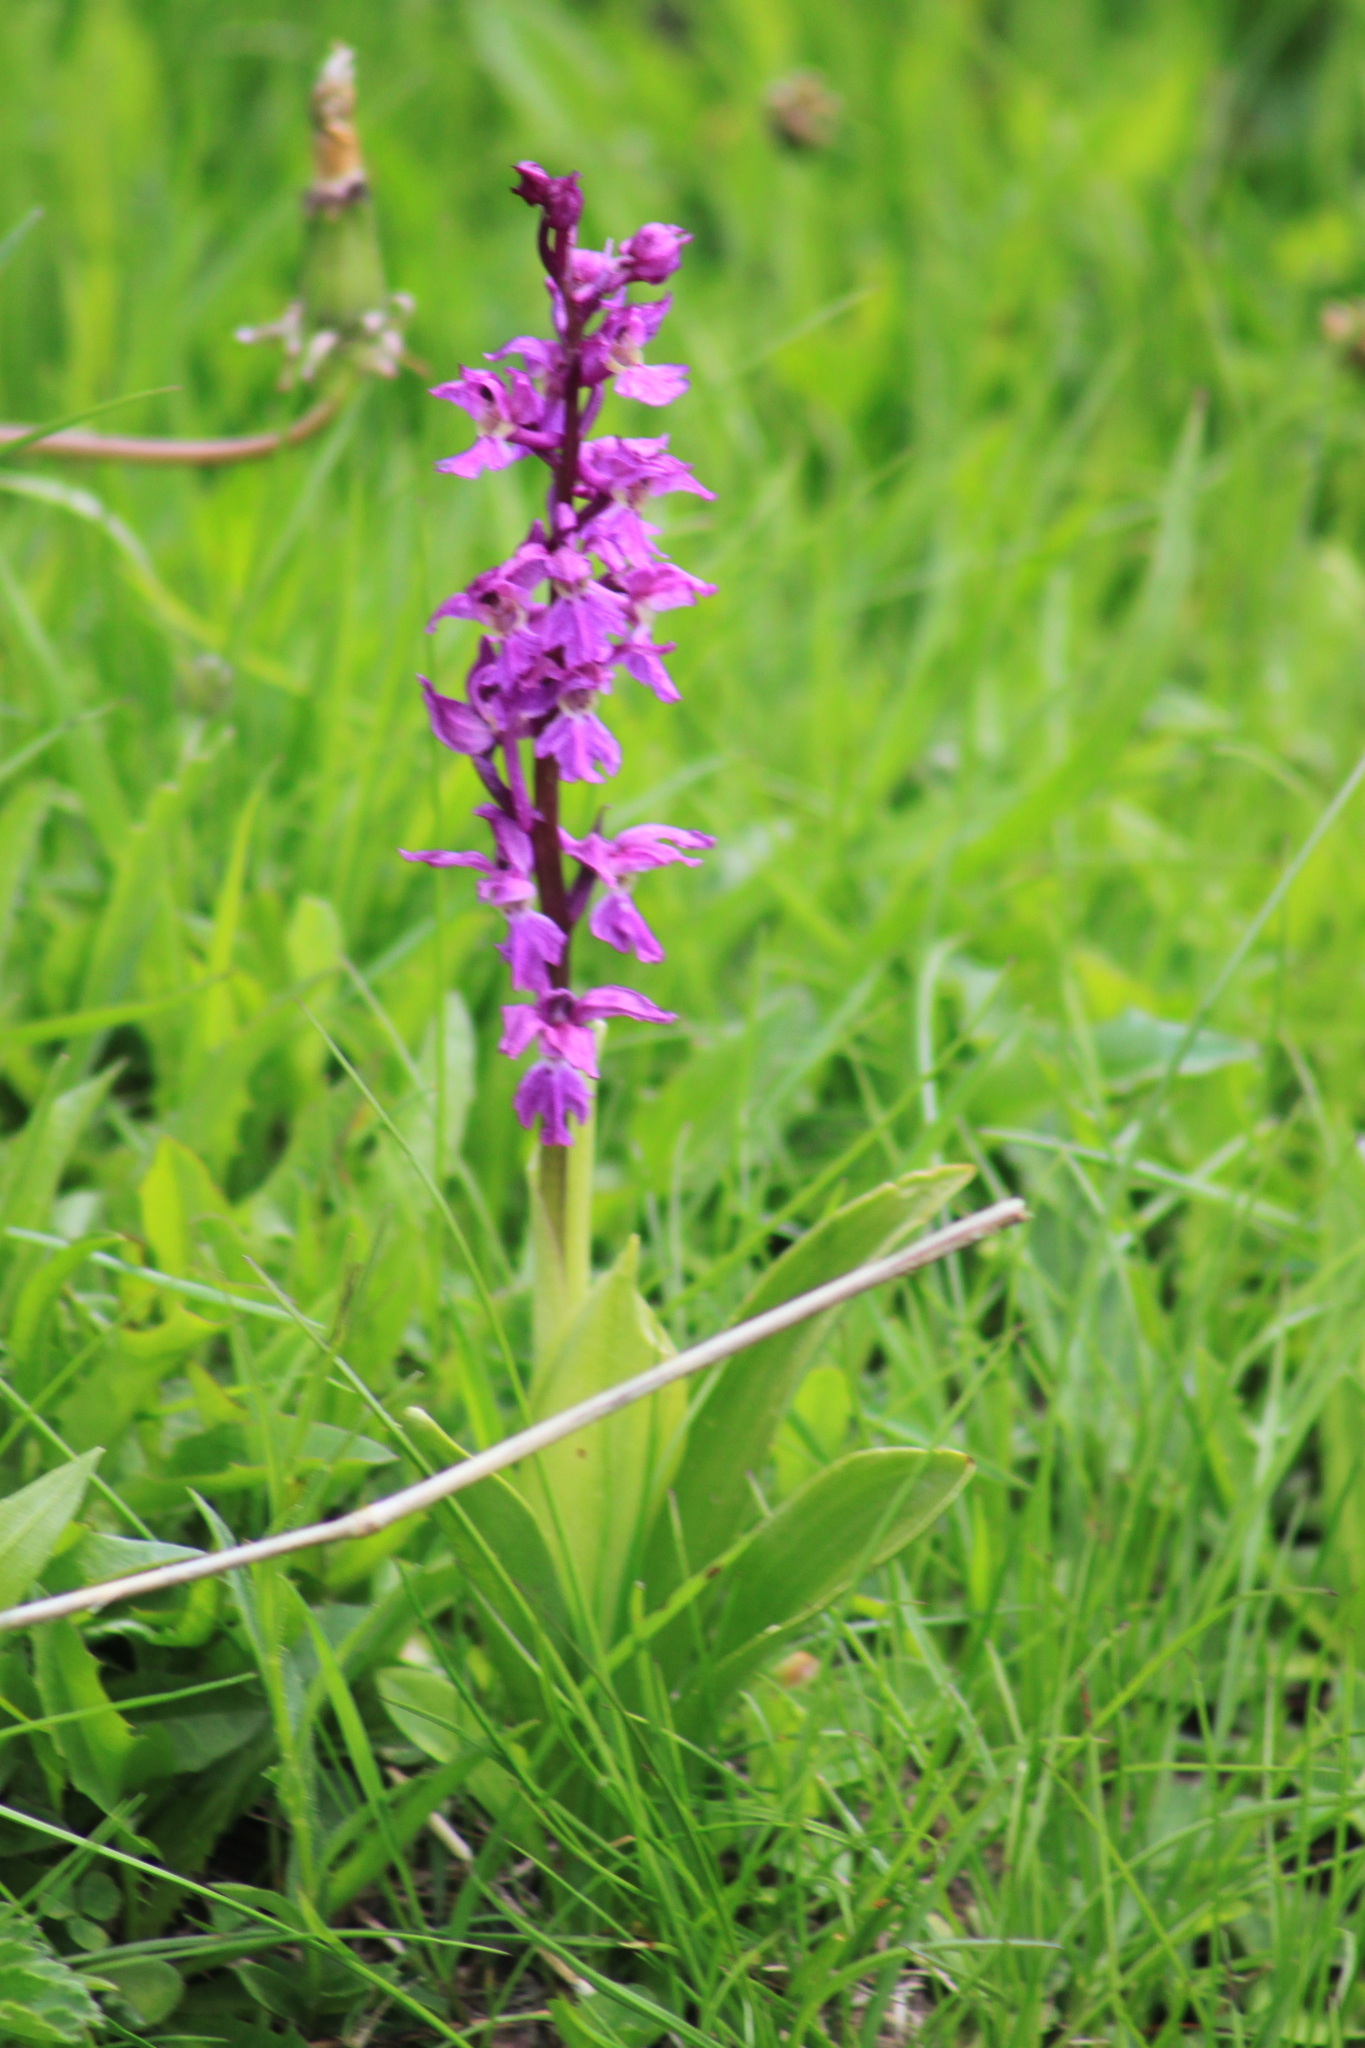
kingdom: Plantae
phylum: Tracheophyta
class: Liliopsida
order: Asparagales
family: Orchidaceae
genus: Orchis
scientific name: Orchis mascula
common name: Early-purple orchid
